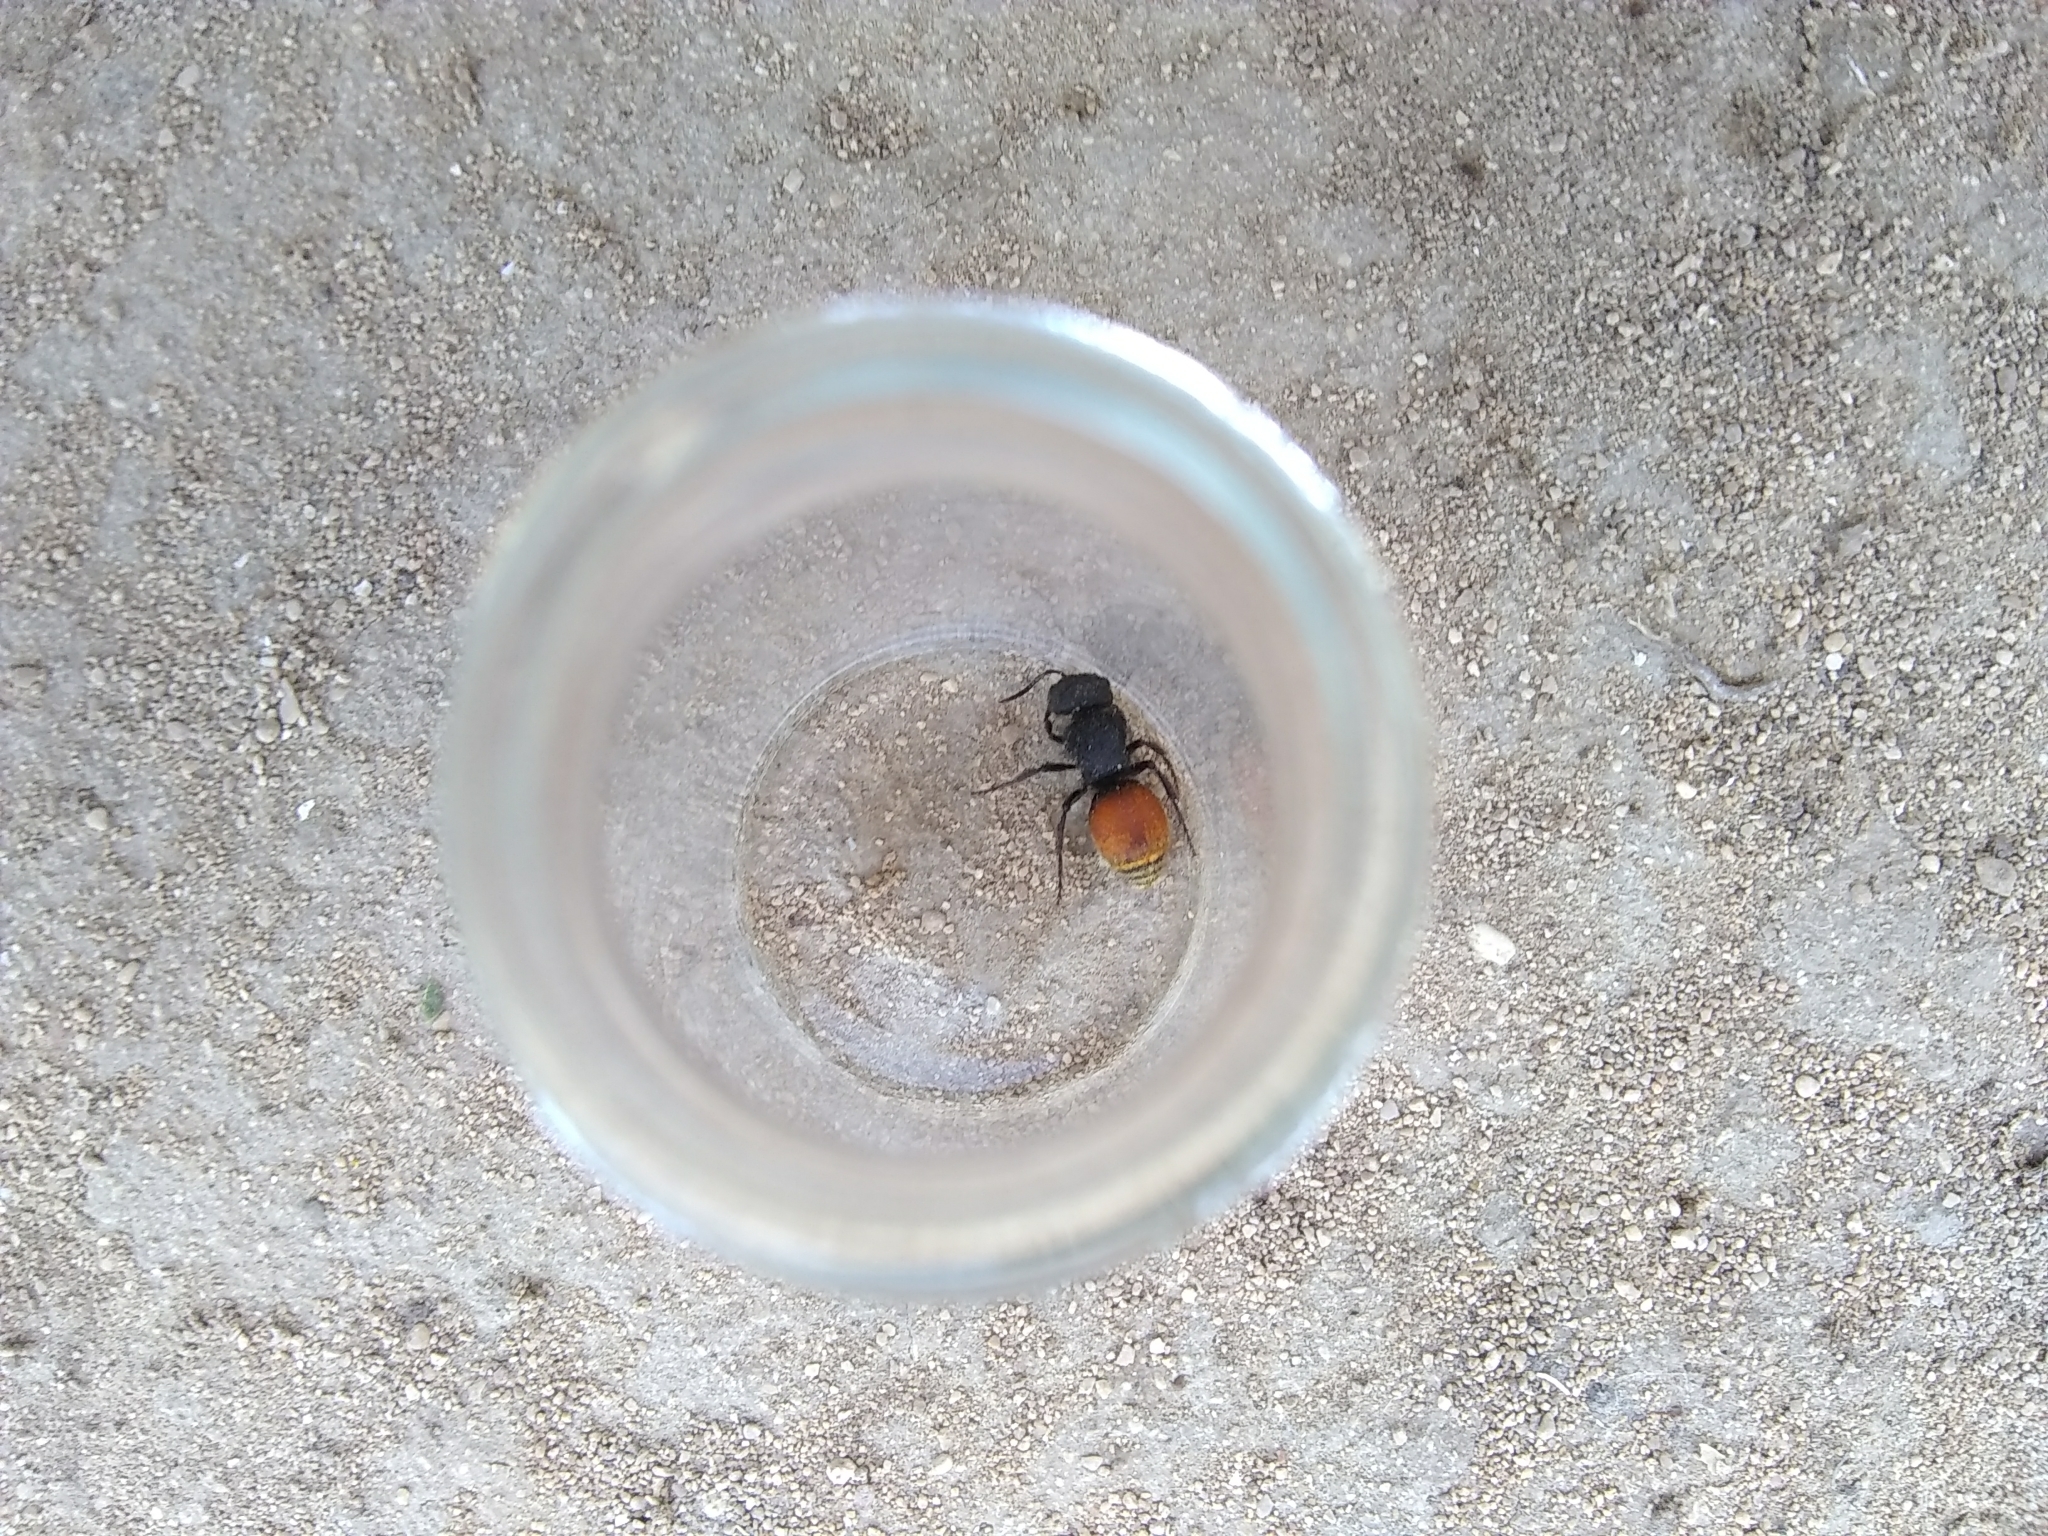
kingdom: Animalia
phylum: Arthropoda
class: Insecta
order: Hymenoptera
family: Mutillidae
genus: Pseudomethoca
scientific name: Pseudomethoca
